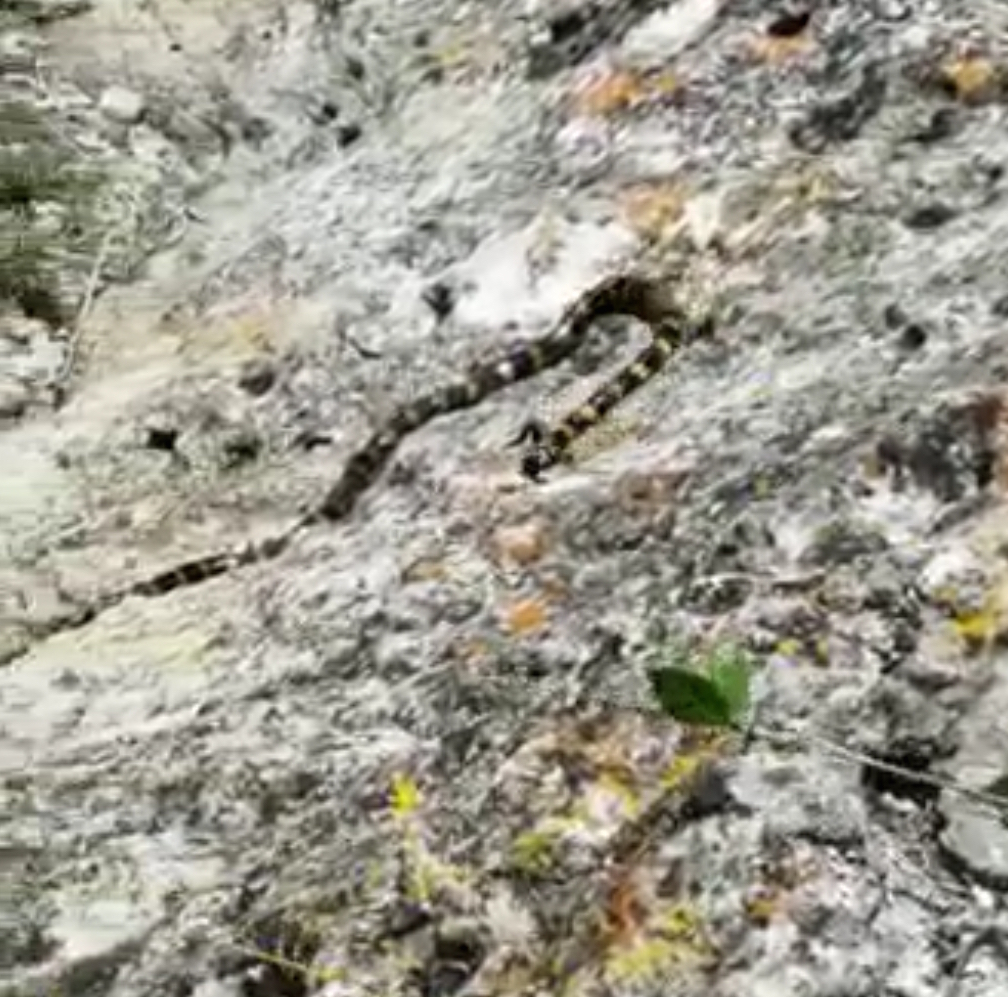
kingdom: Animalia
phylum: Chordata
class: Squamata
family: Elapidae
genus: Micrurus
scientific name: Micrurus ephippifer
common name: Double black coral snake
